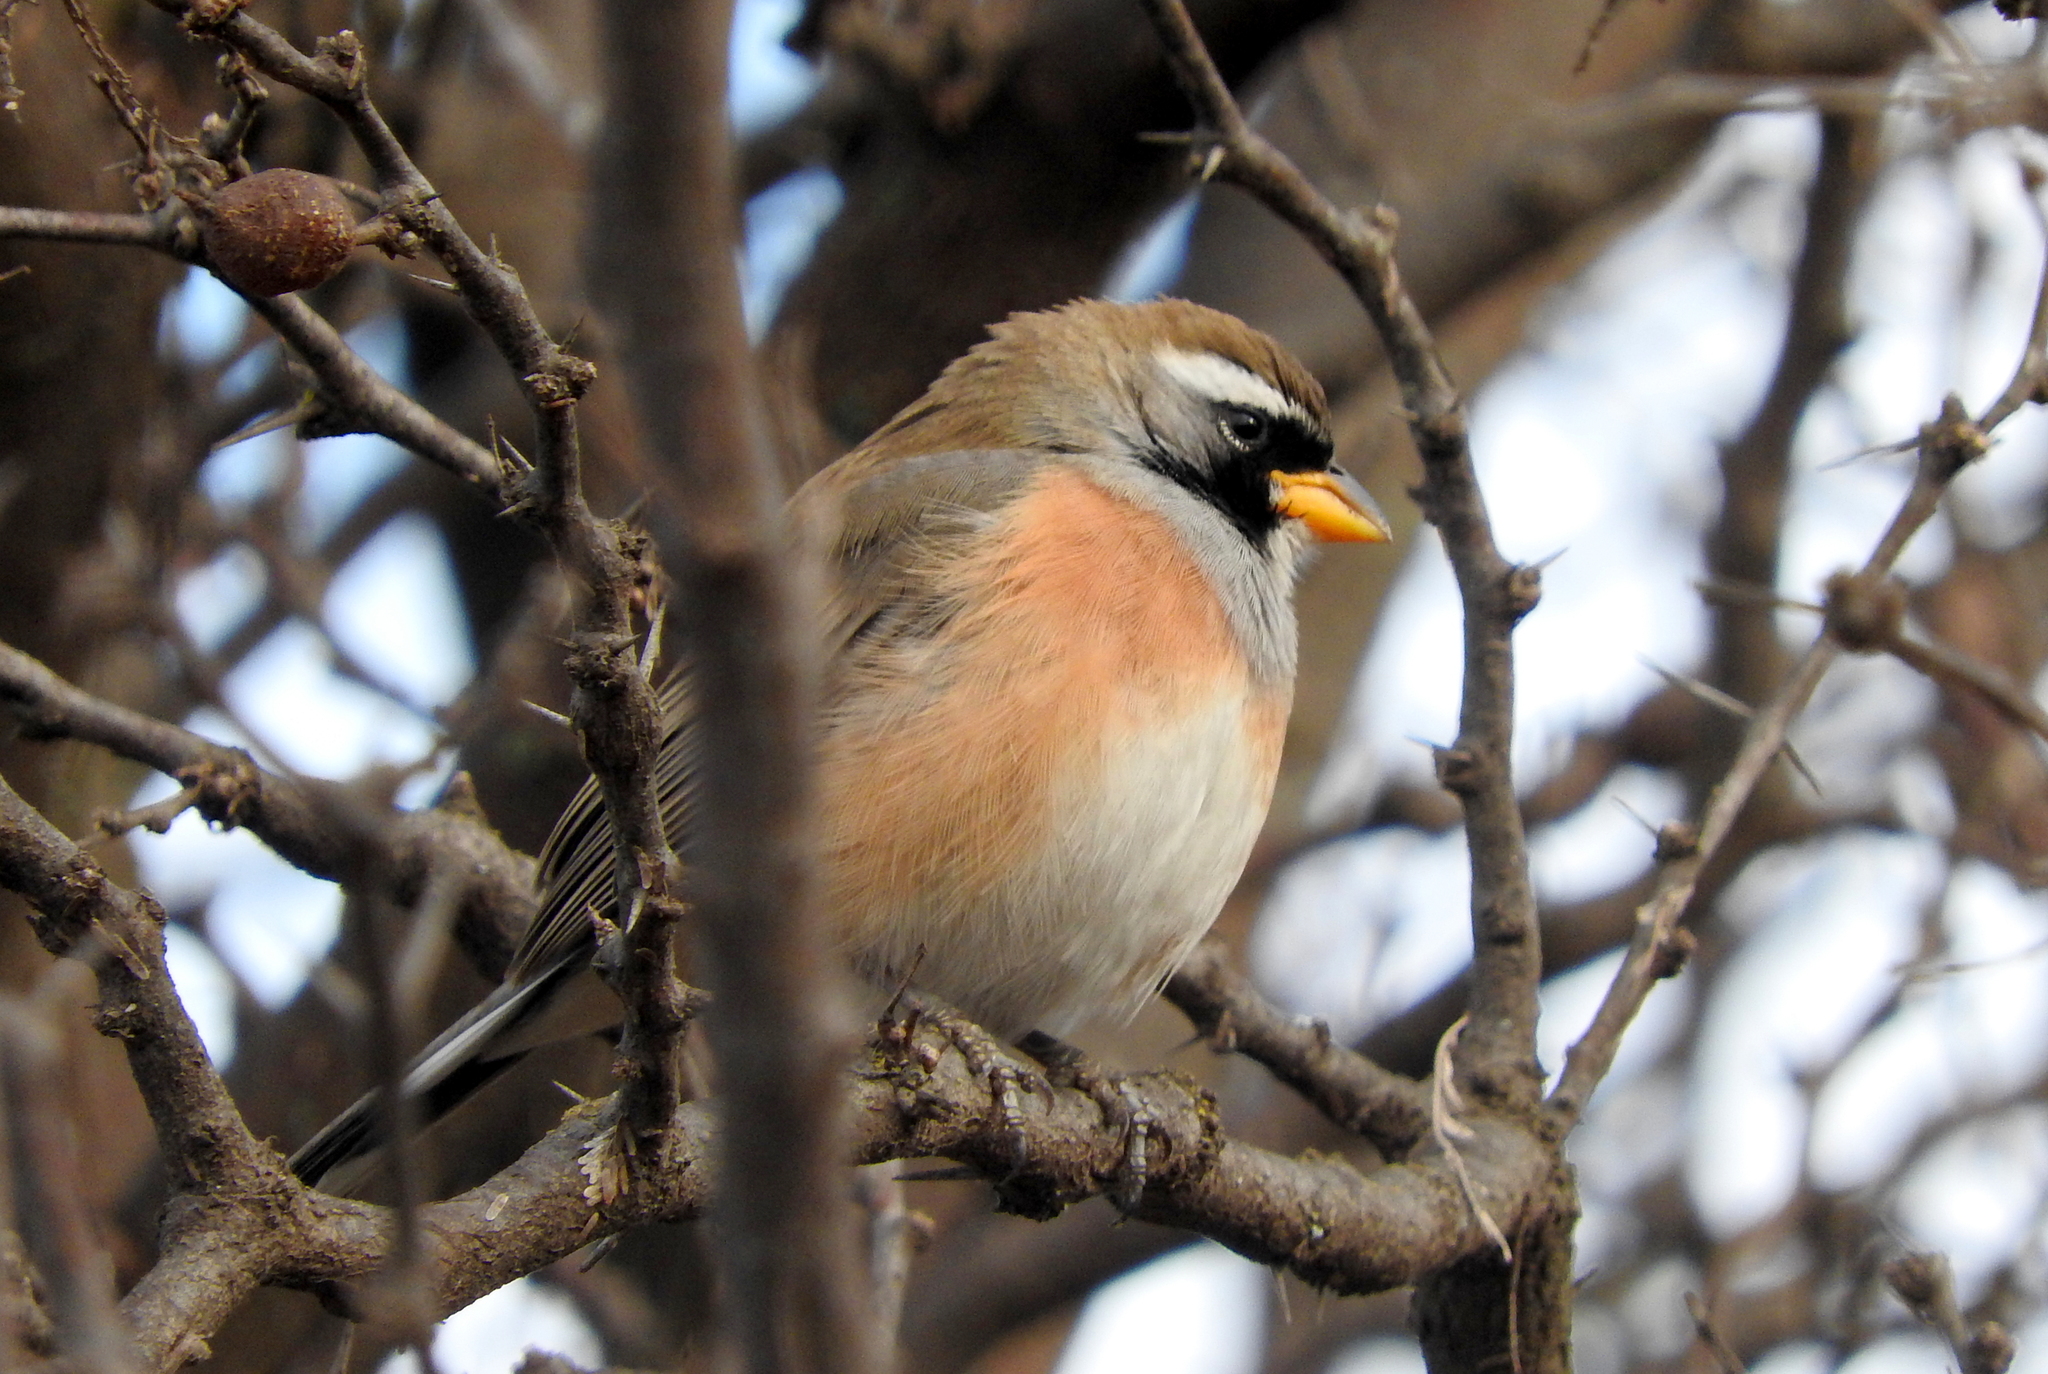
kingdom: Animalia
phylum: Chordata
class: Aves
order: Passeriformes
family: Thraupidae
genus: Saltatricula
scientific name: Saltatricula multicolor
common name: Many-colored chaco finch
